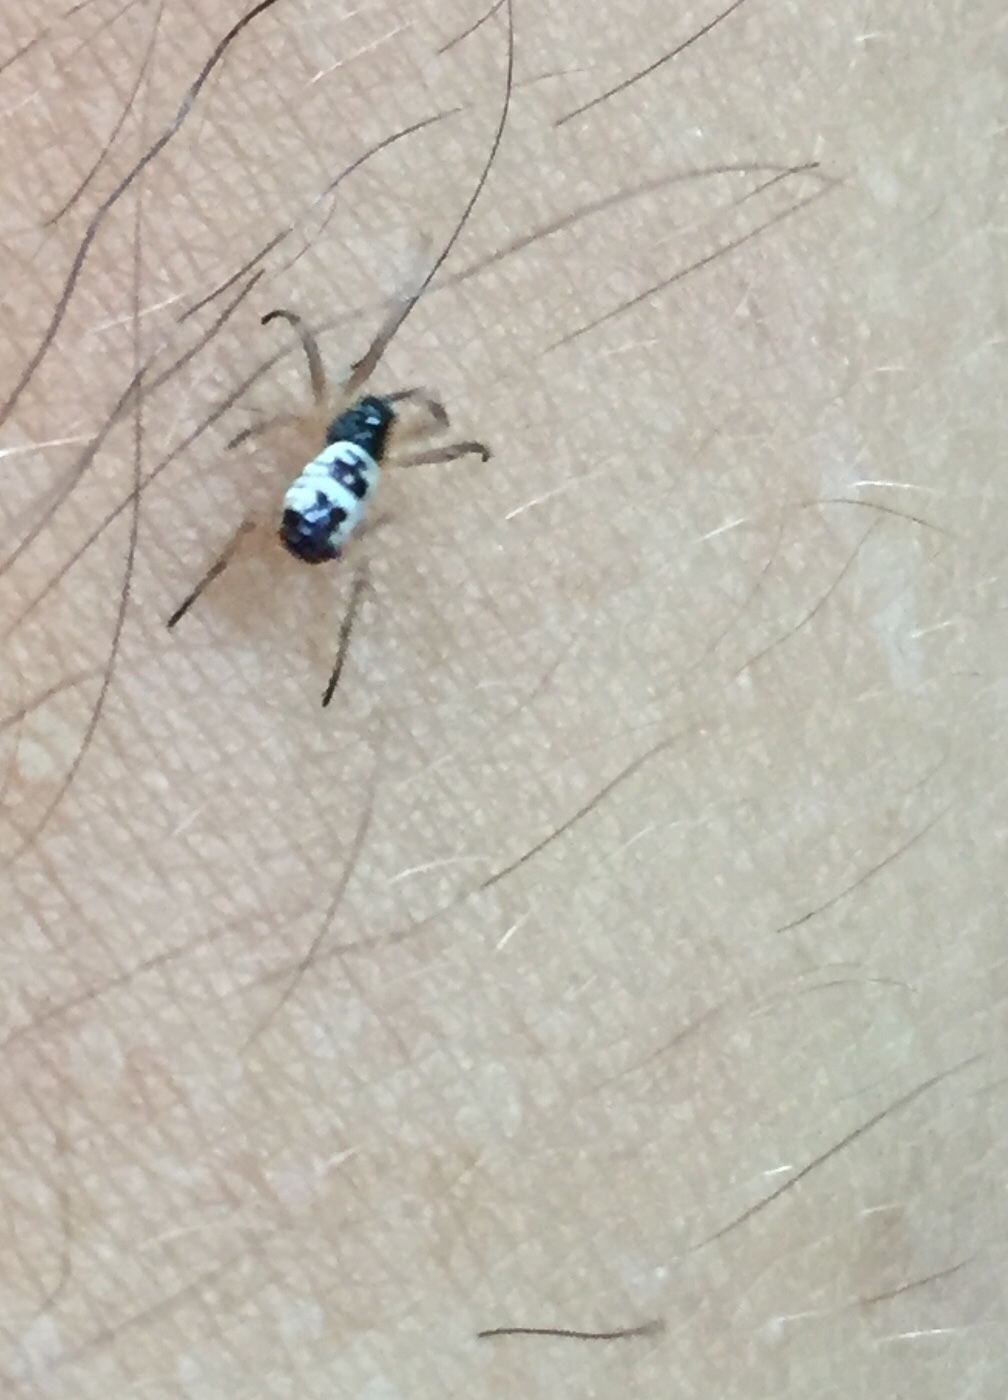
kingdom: Animalia
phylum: Arthropoda
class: Arachnida
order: Araneae
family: Araneidae
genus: Micrathena
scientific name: Micrathena mitrata
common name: Orb weavers
